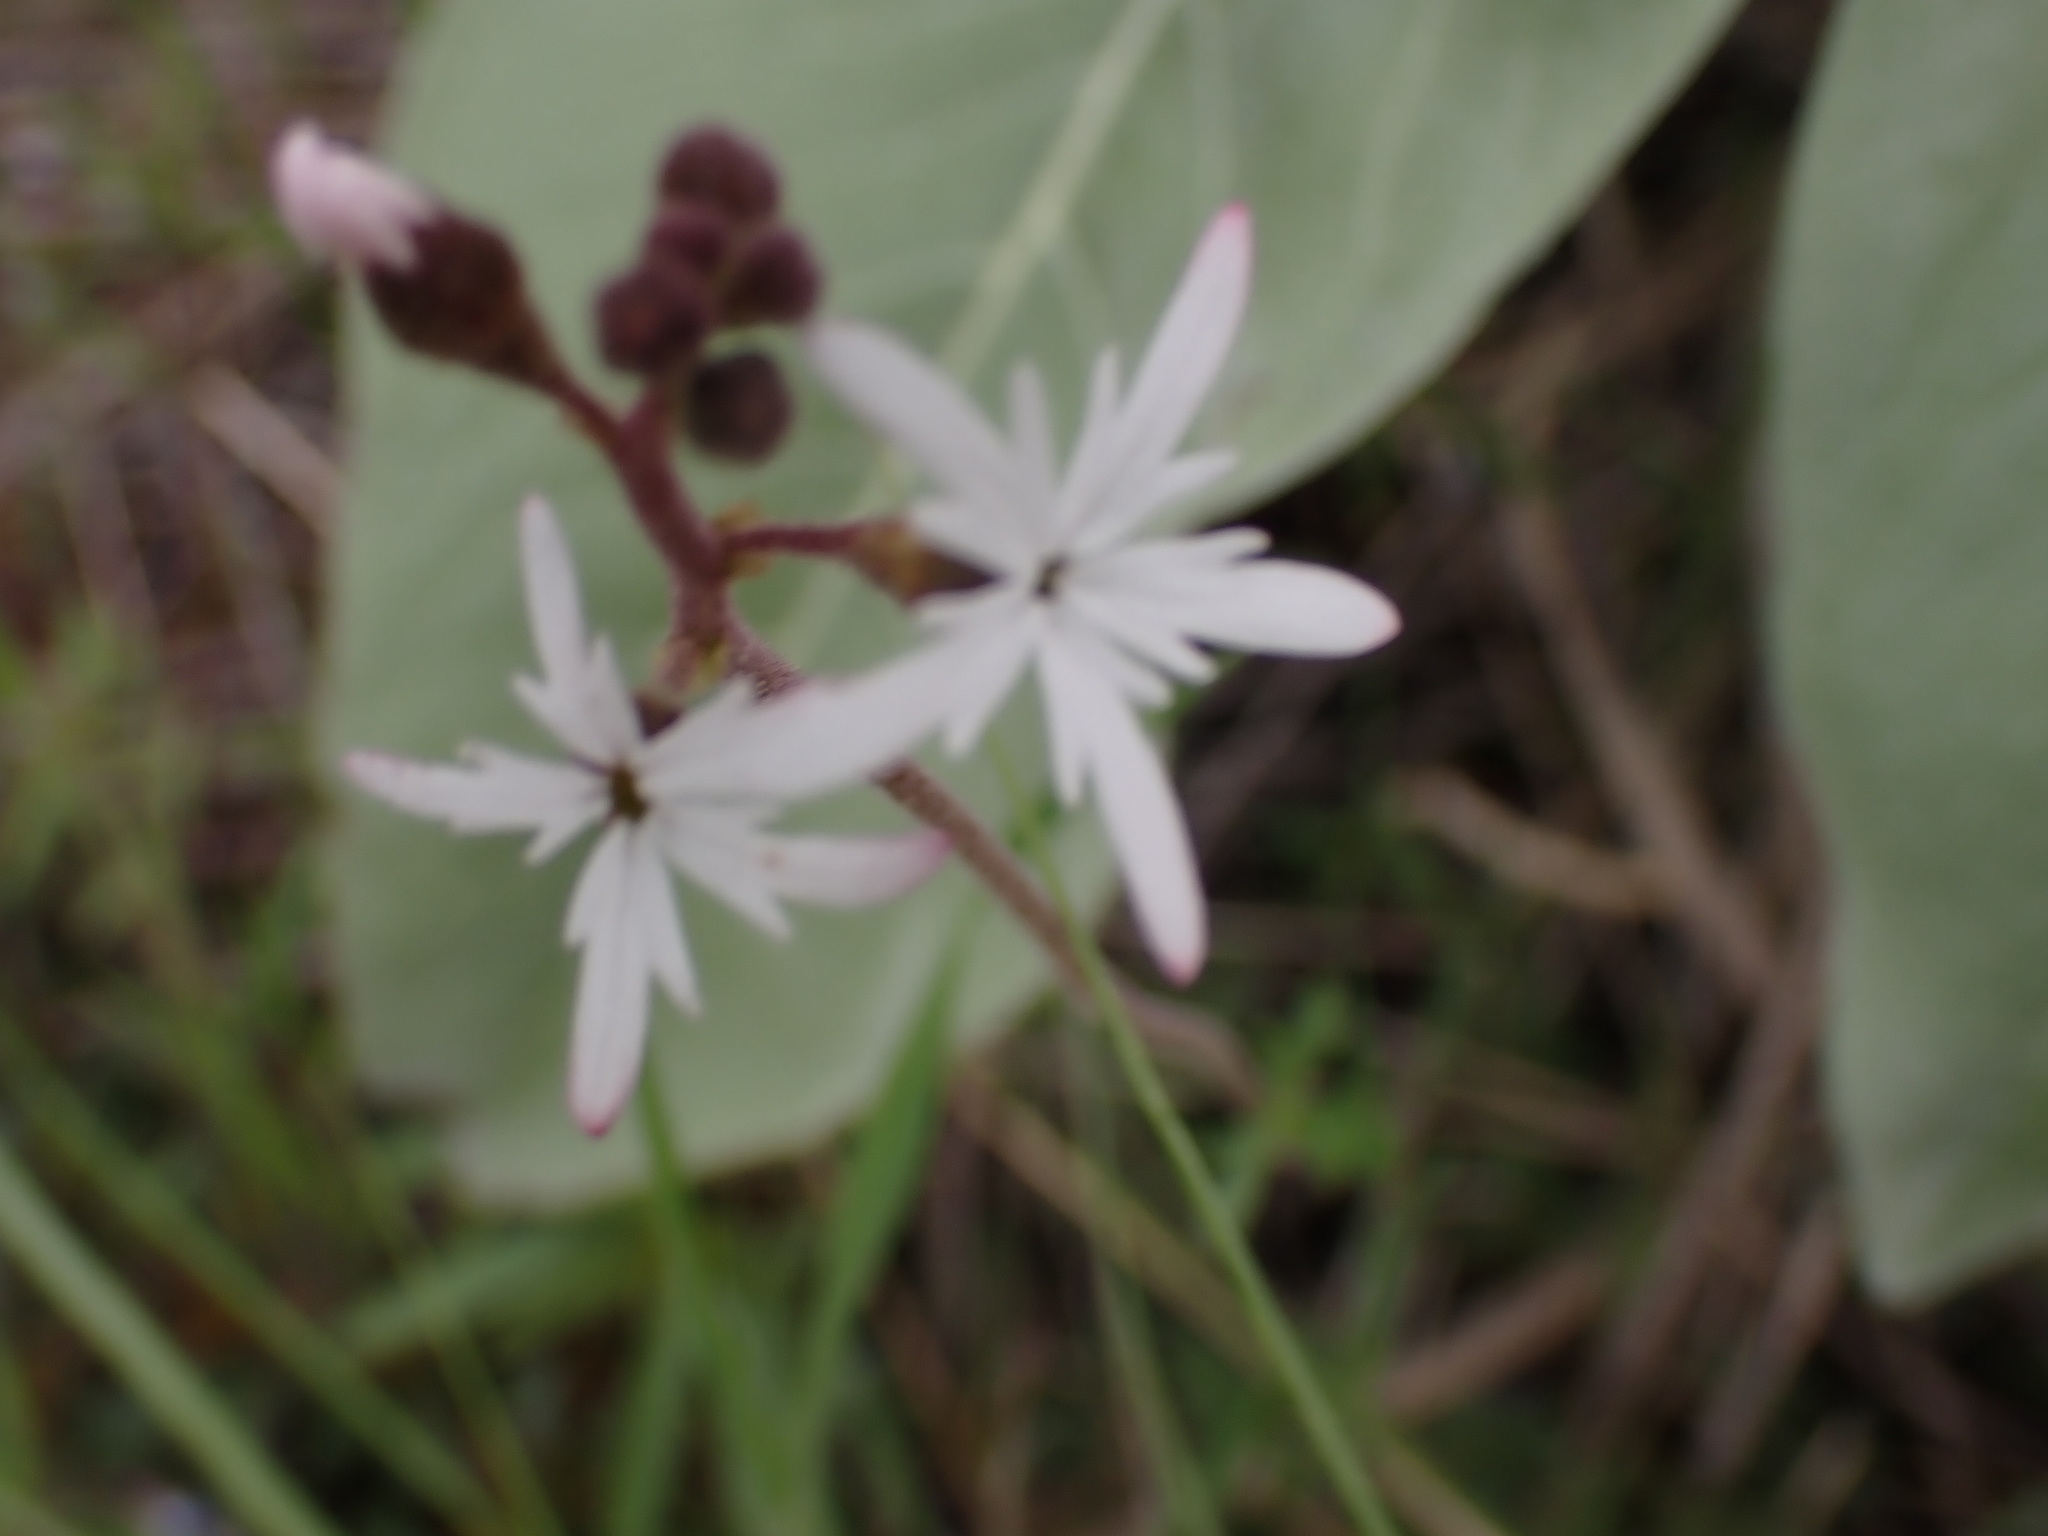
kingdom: Plantae
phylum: Tracheophyta
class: Magnoliopsida
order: Saxifragales
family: Saxifragaceae
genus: Lithophragma
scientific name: Lithophragma parviflorum
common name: Small-flowered fringe-cup
